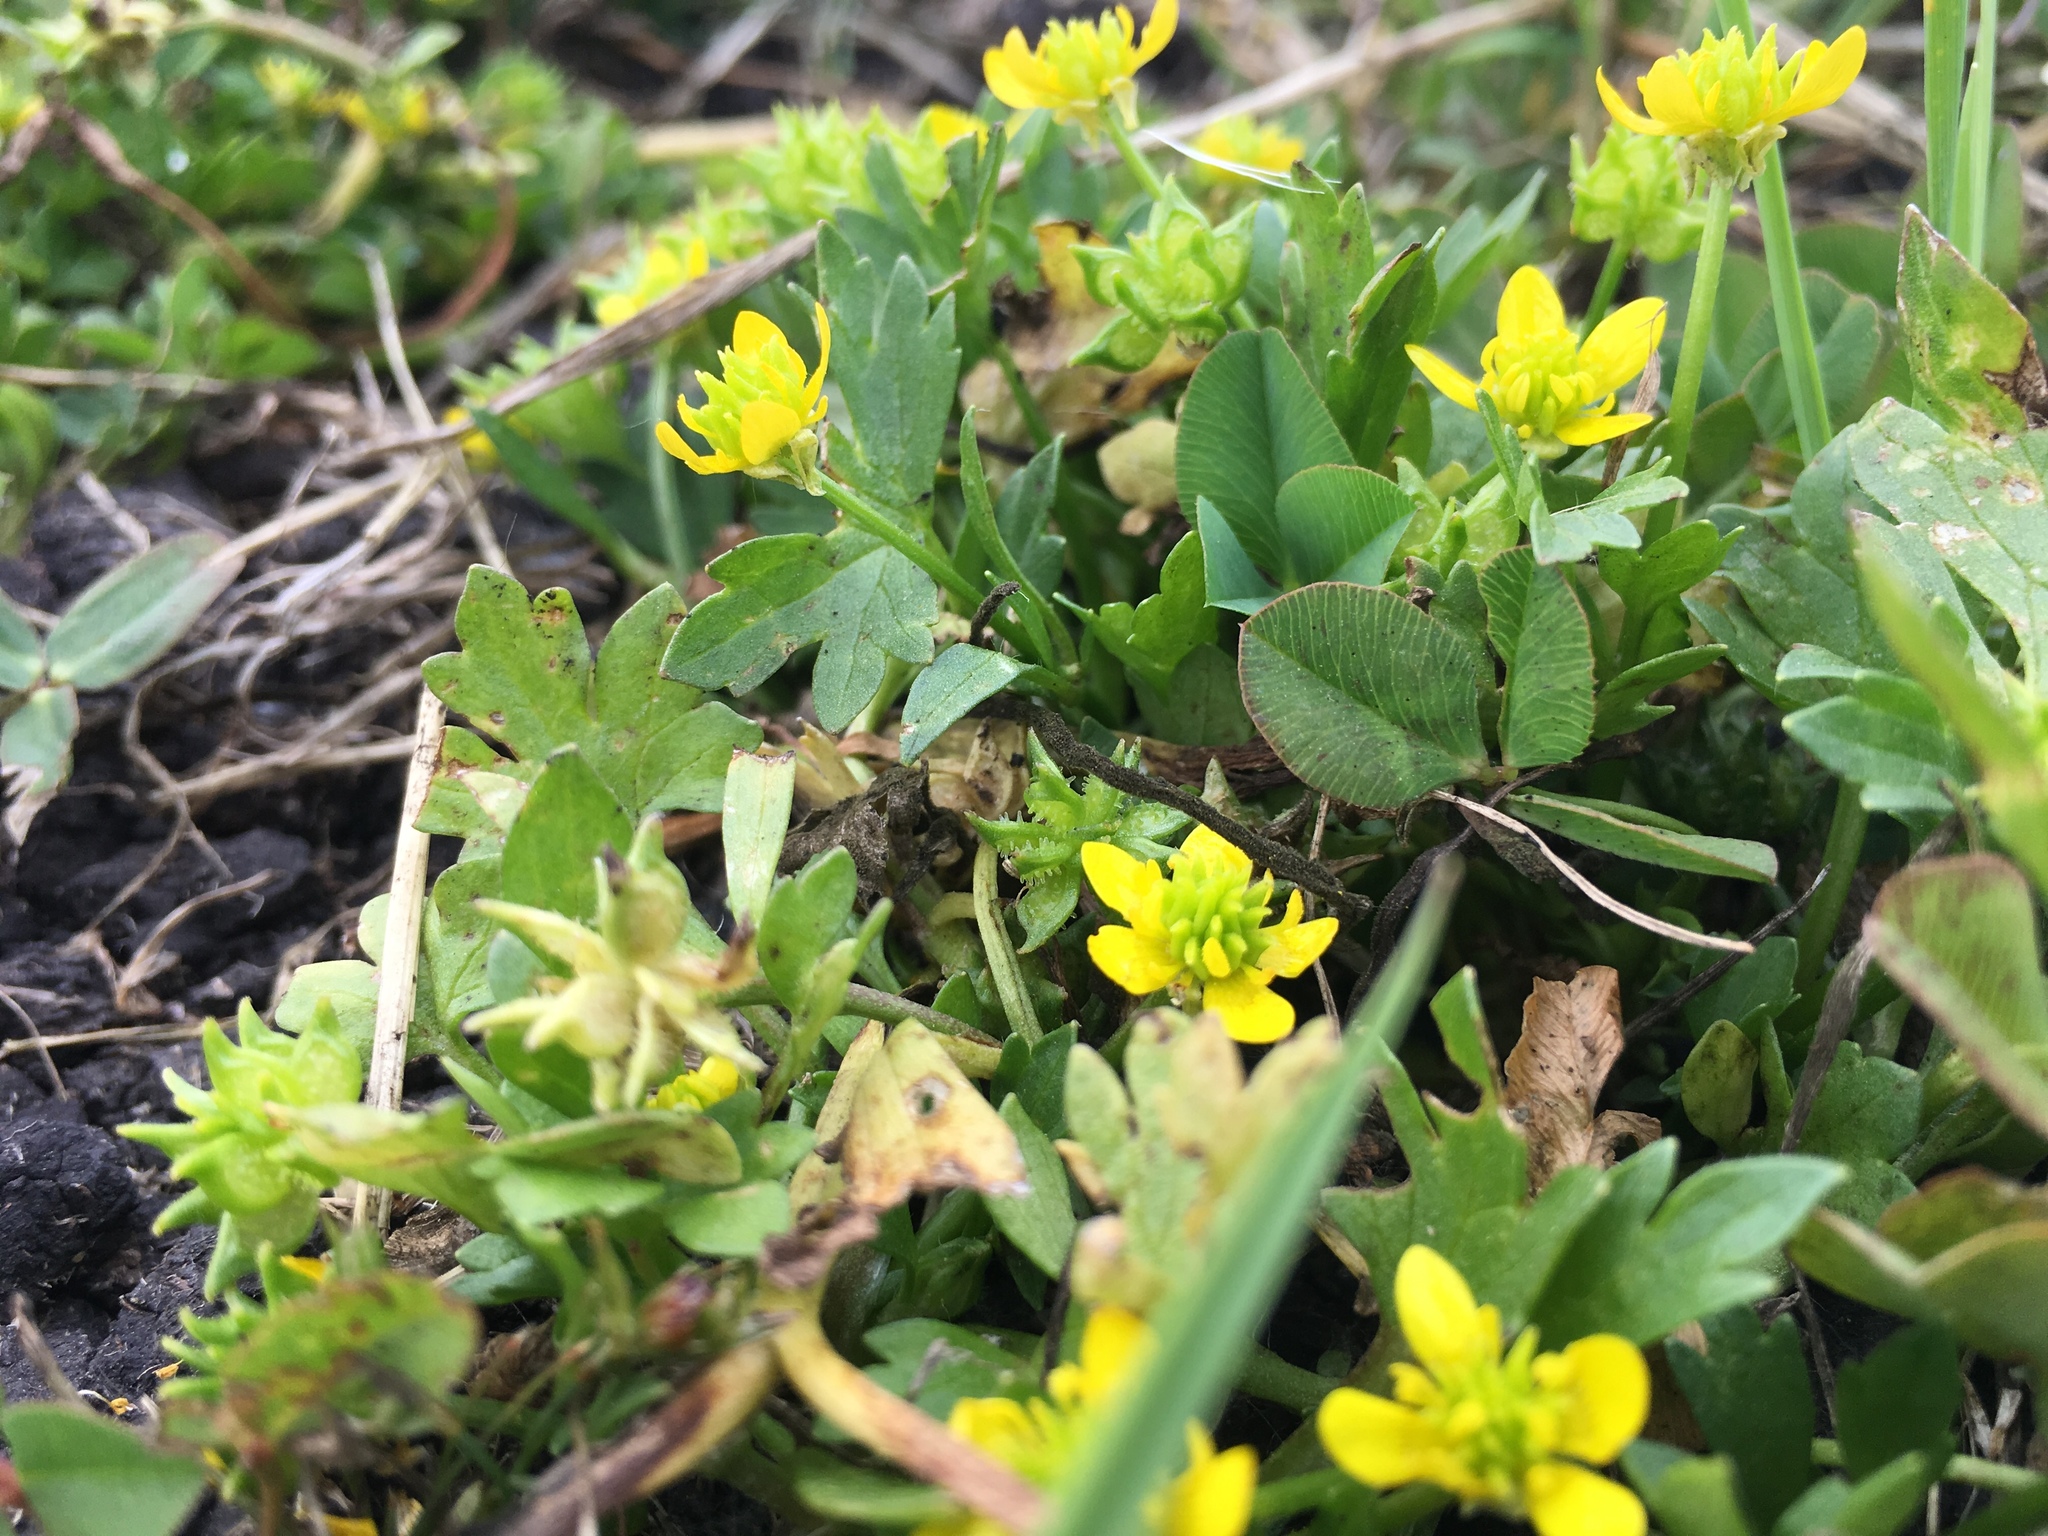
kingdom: Plantae
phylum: Tracheophyta
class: Magnoliopsida
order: Ranunculales
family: Ranunculaceae
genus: Ranunculus
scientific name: Ranunculus muricatus
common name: Rough-fruited buttercup
